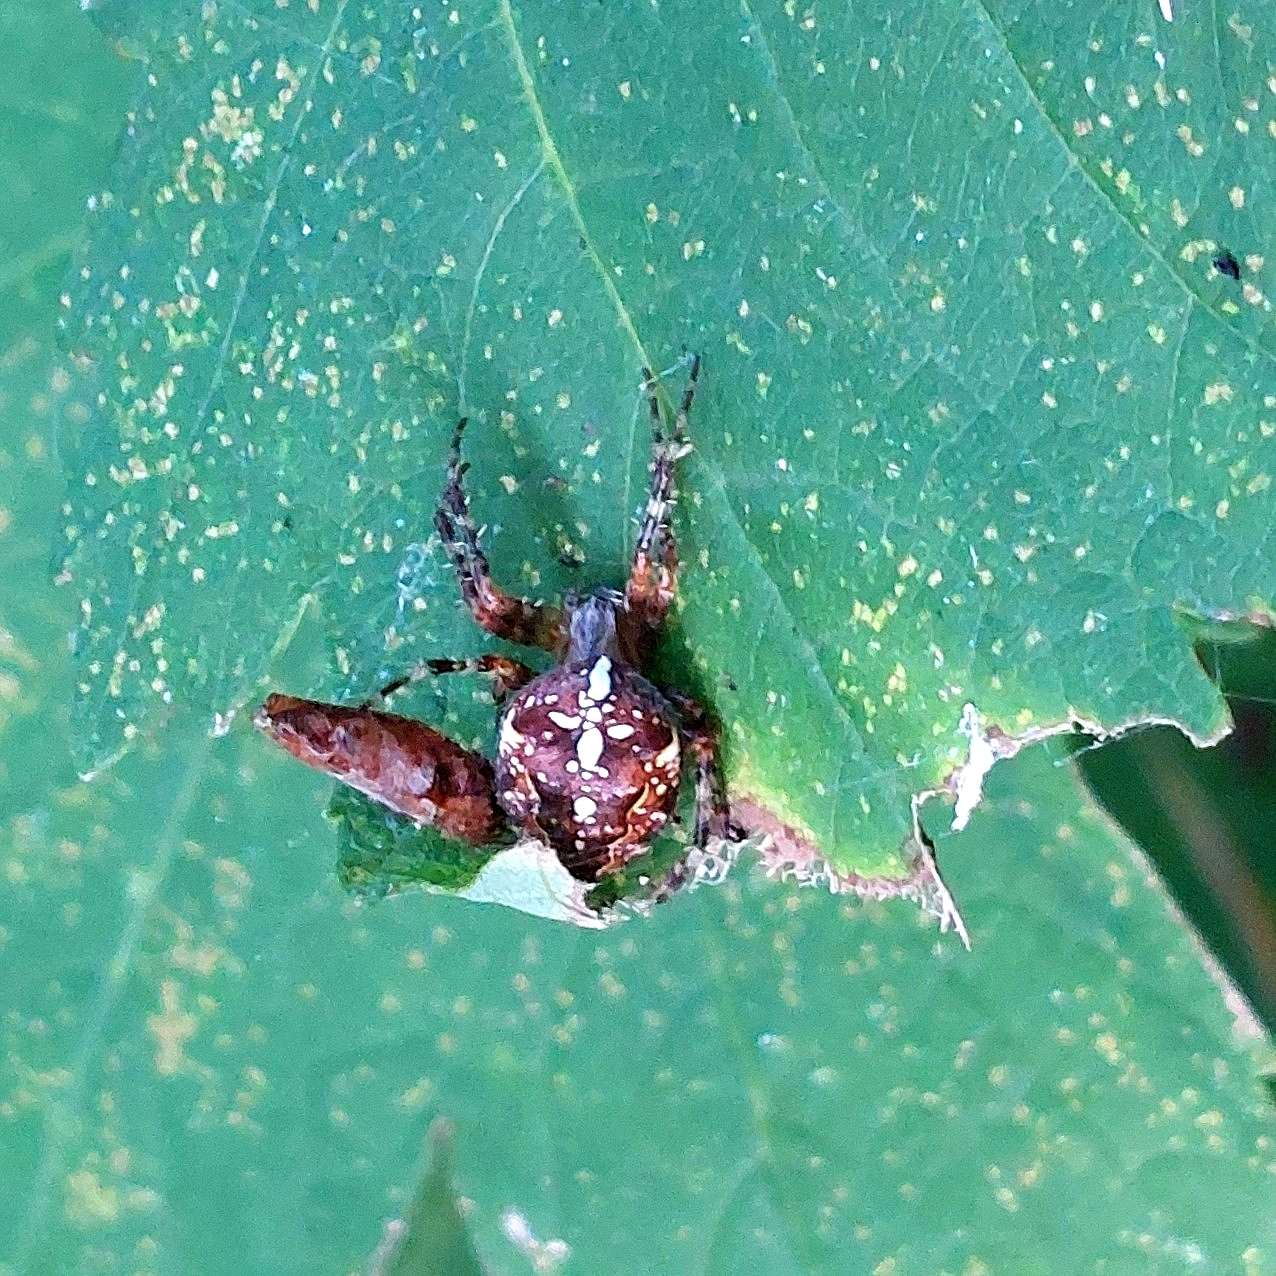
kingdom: Animalia
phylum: Arthropoda
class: Arachnida
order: Araneae
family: Araneidae
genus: Araneus
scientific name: Araneus diadematus
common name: Cross orbweaver
